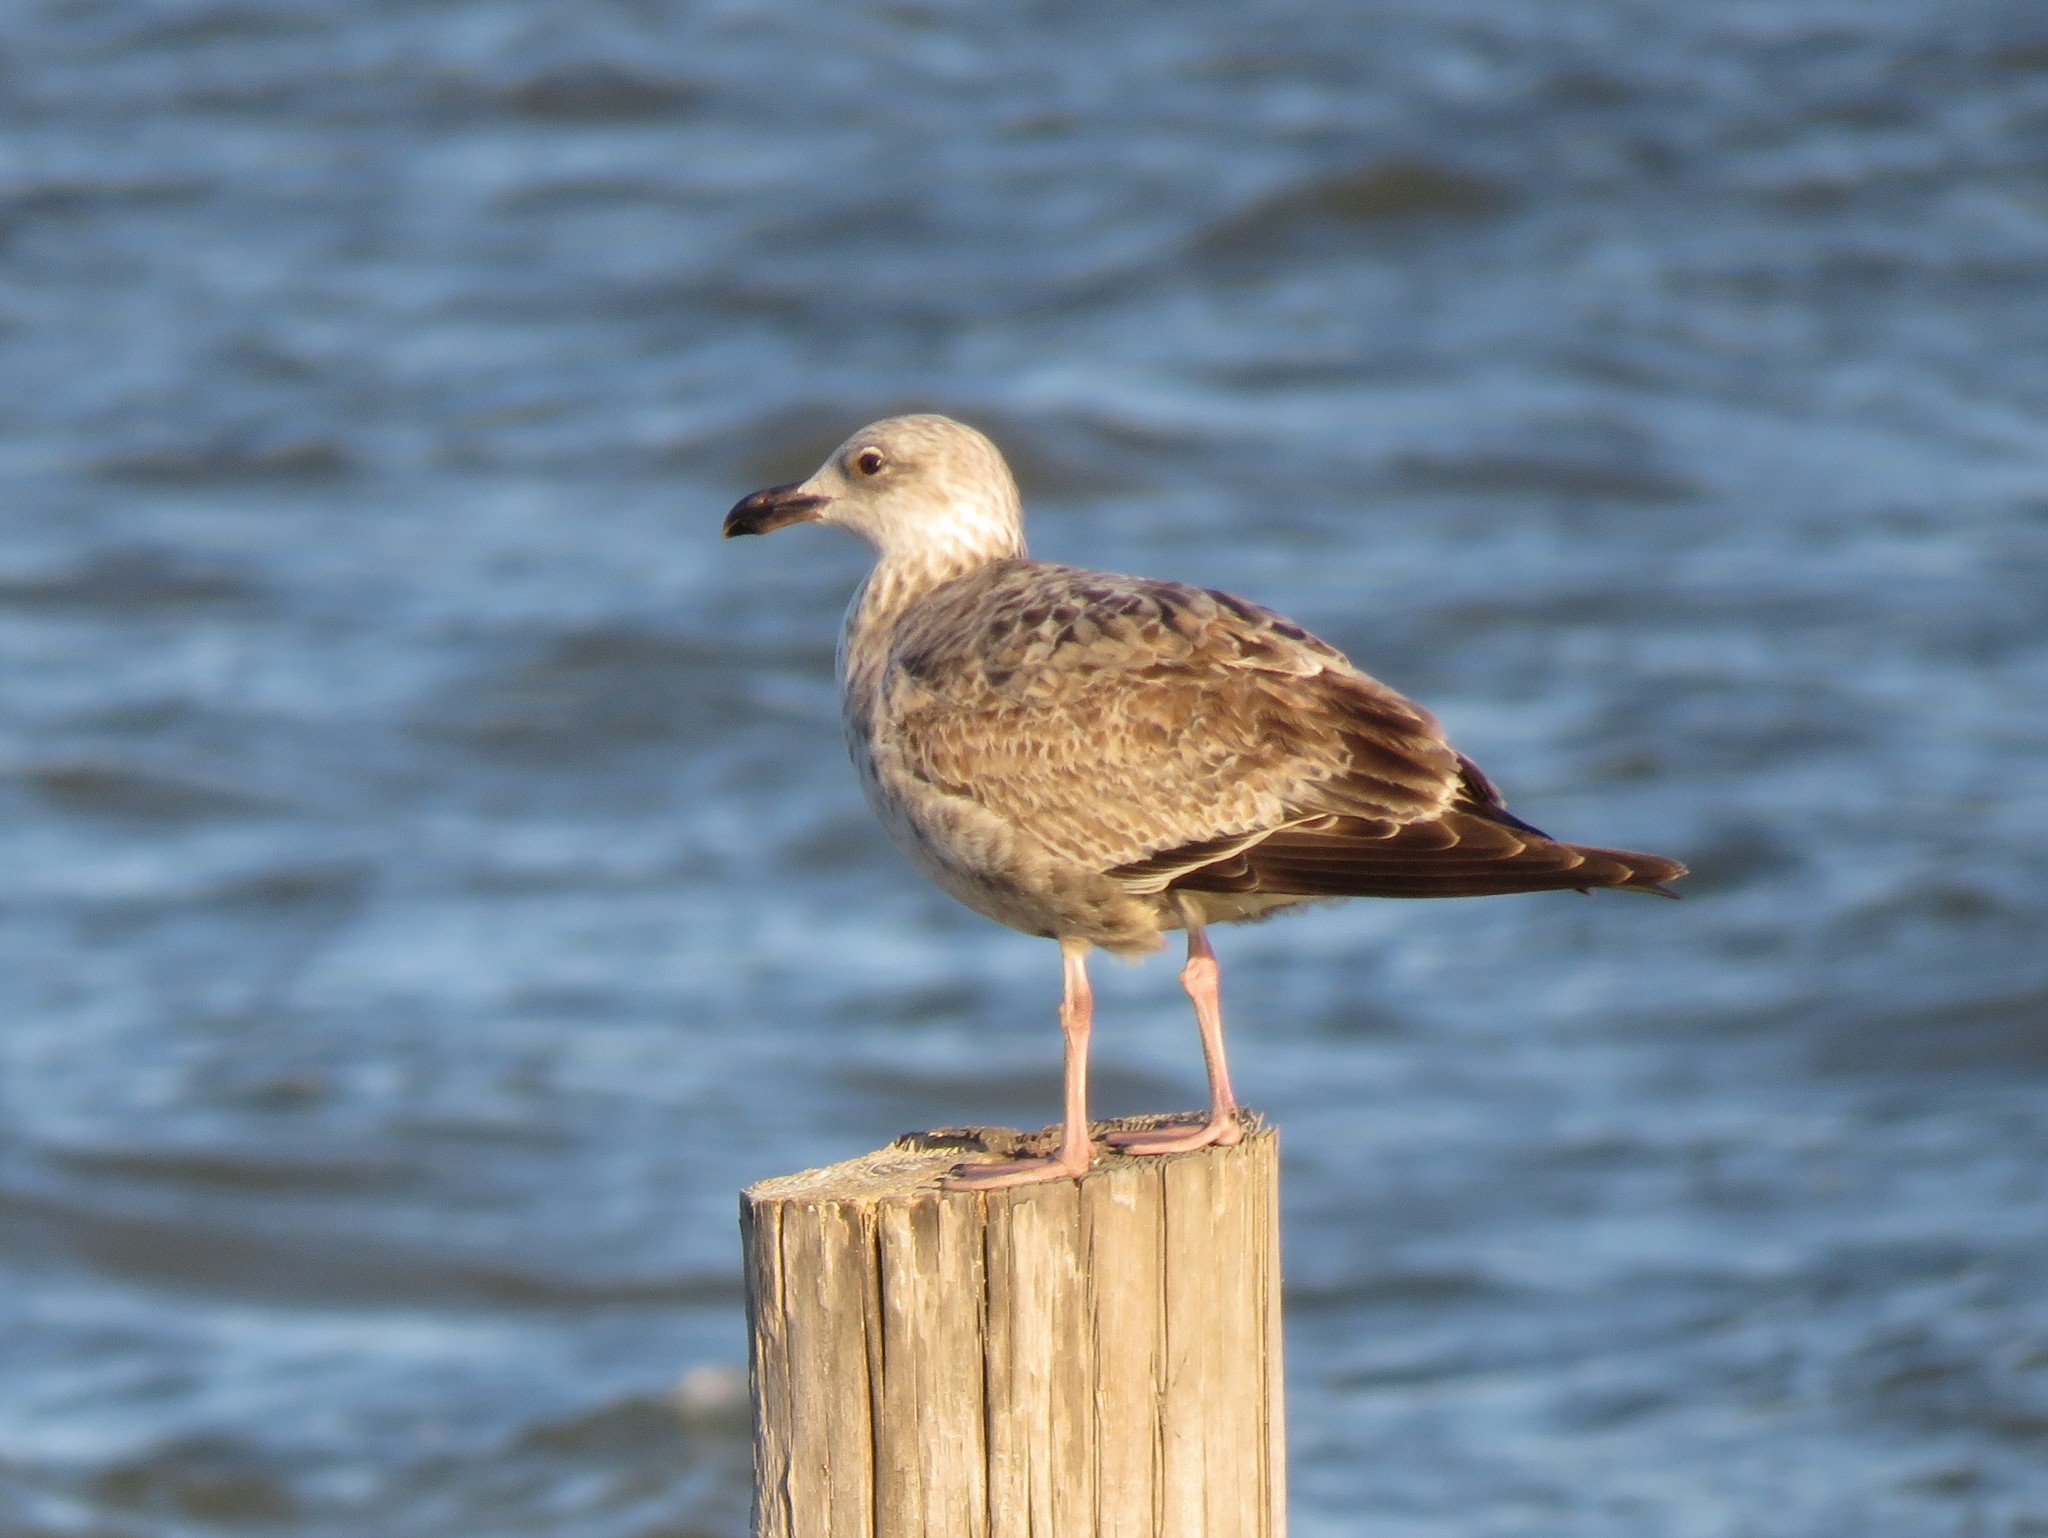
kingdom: Animalia
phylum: Chordata
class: Aves
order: Charadriiformes
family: Laridae
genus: Larus
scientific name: Larus argentatus
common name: Herring gull
